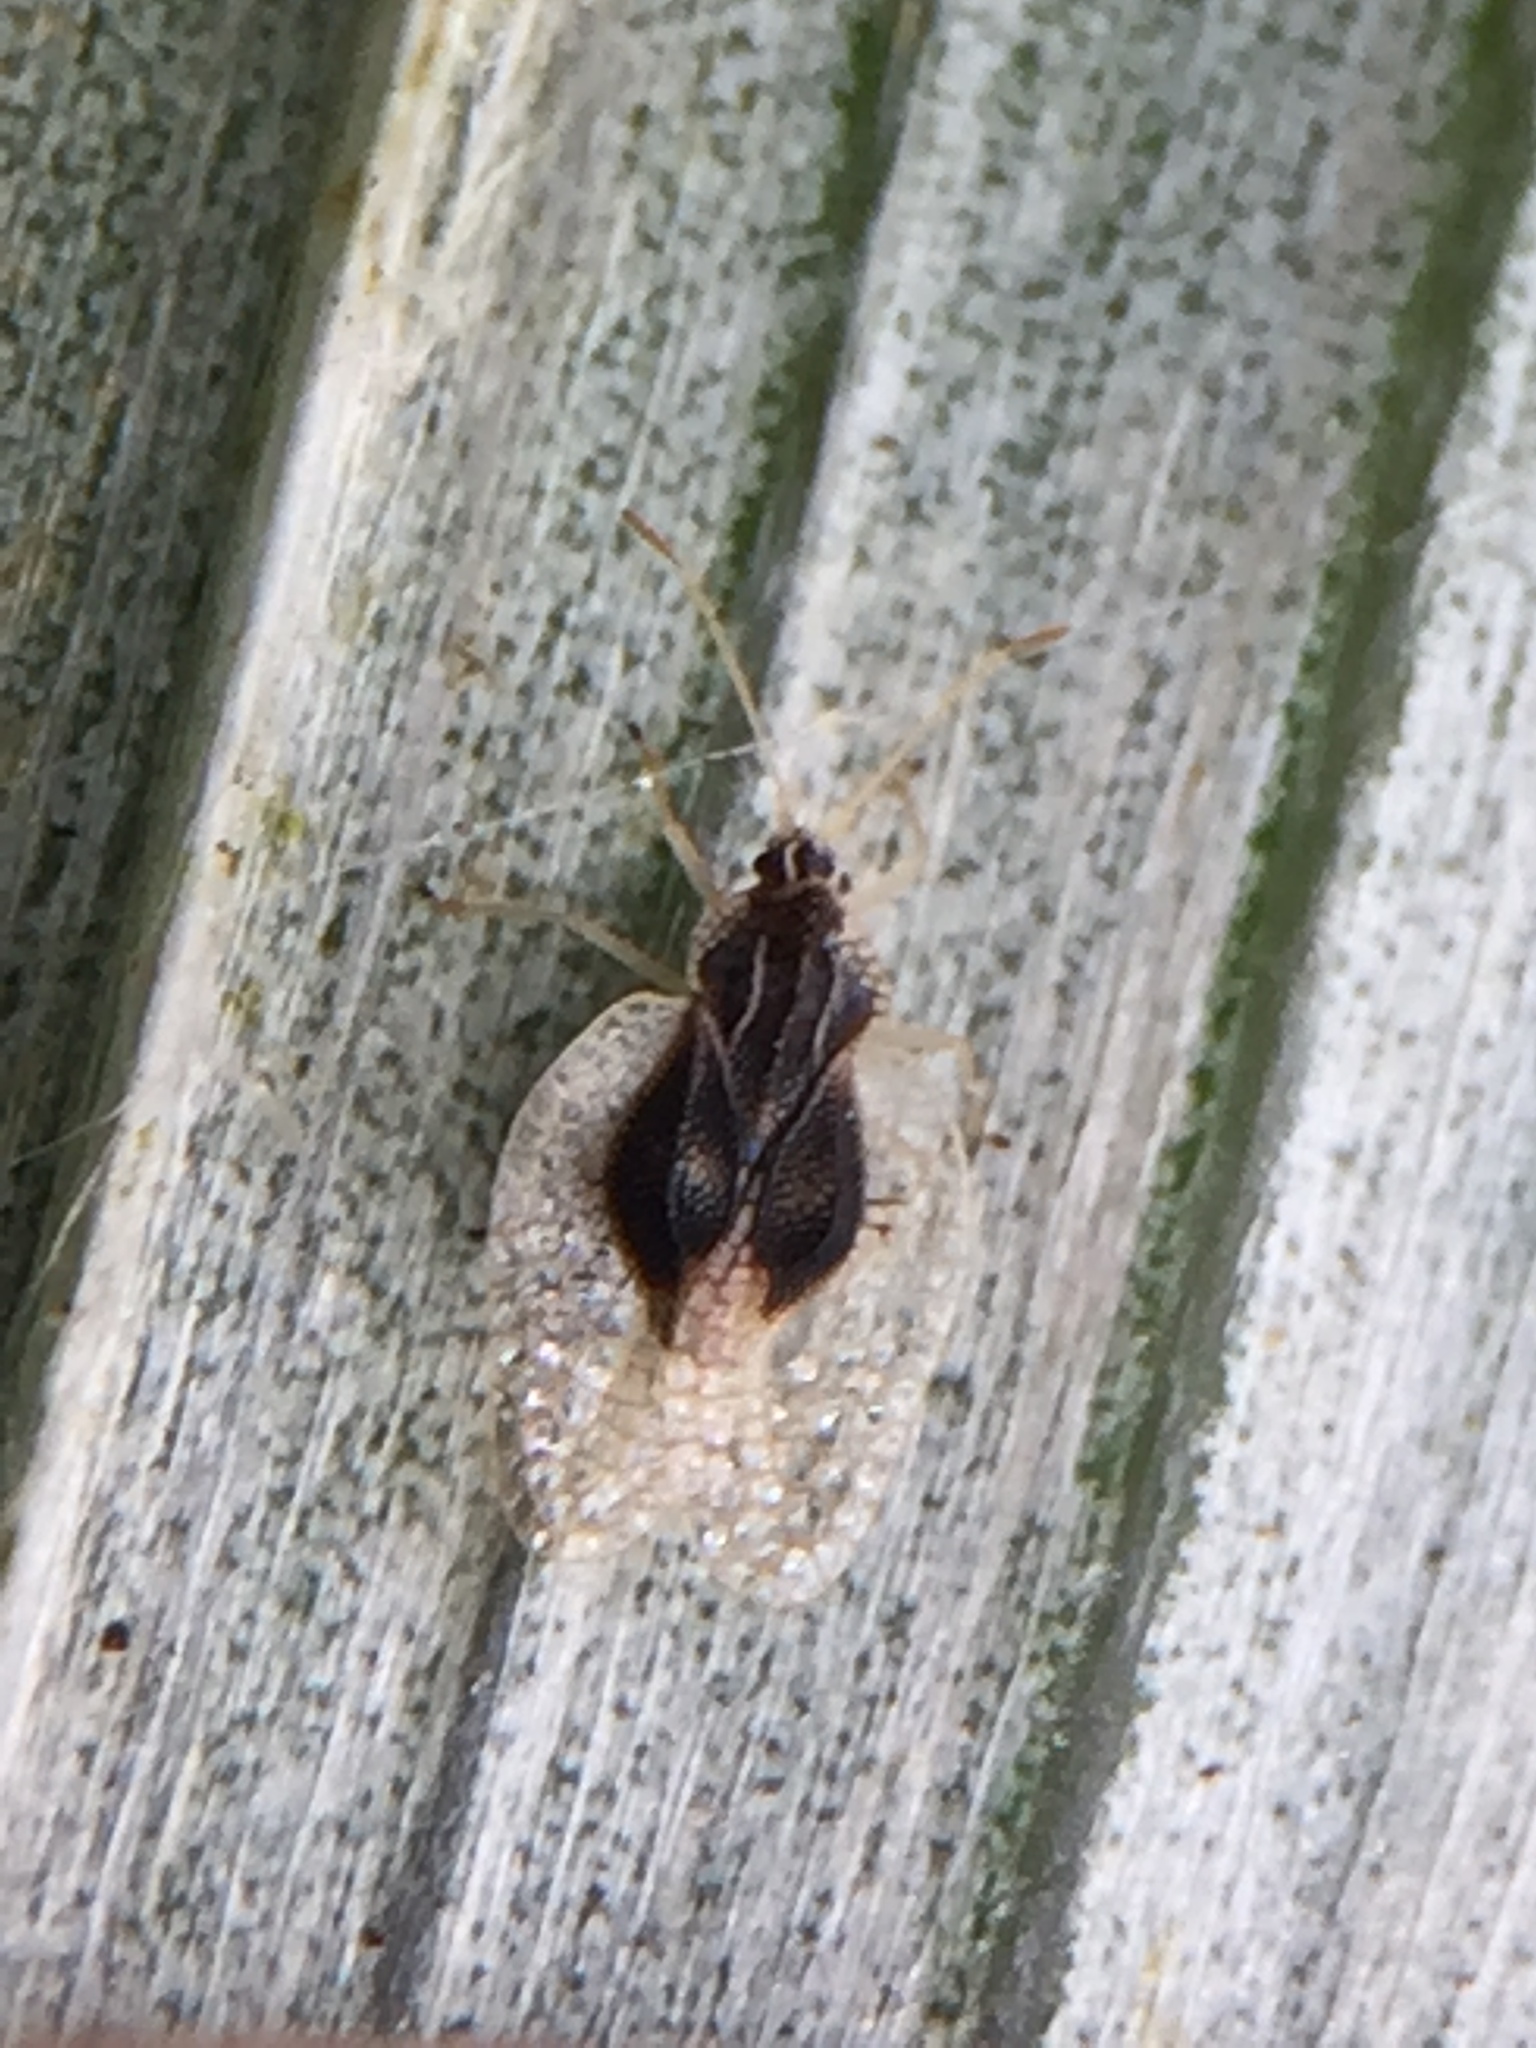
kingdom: Animalia
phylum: Arthropoda
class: Insecta
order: Hemiptera
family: Tingidae
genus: Tanybyrsa
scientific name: Tanybyrsa cumberi
